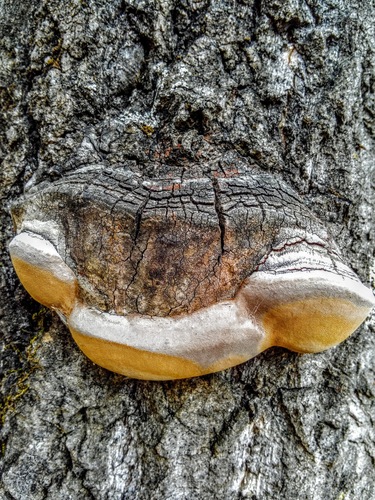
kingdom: Fungi
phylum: Basidiomycota
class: Agaricomycetes
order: Hymenochaetales
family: Hymenochaetaceae
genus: Phellinus
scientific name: Phellinus tremulae
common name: Aspen bracket
